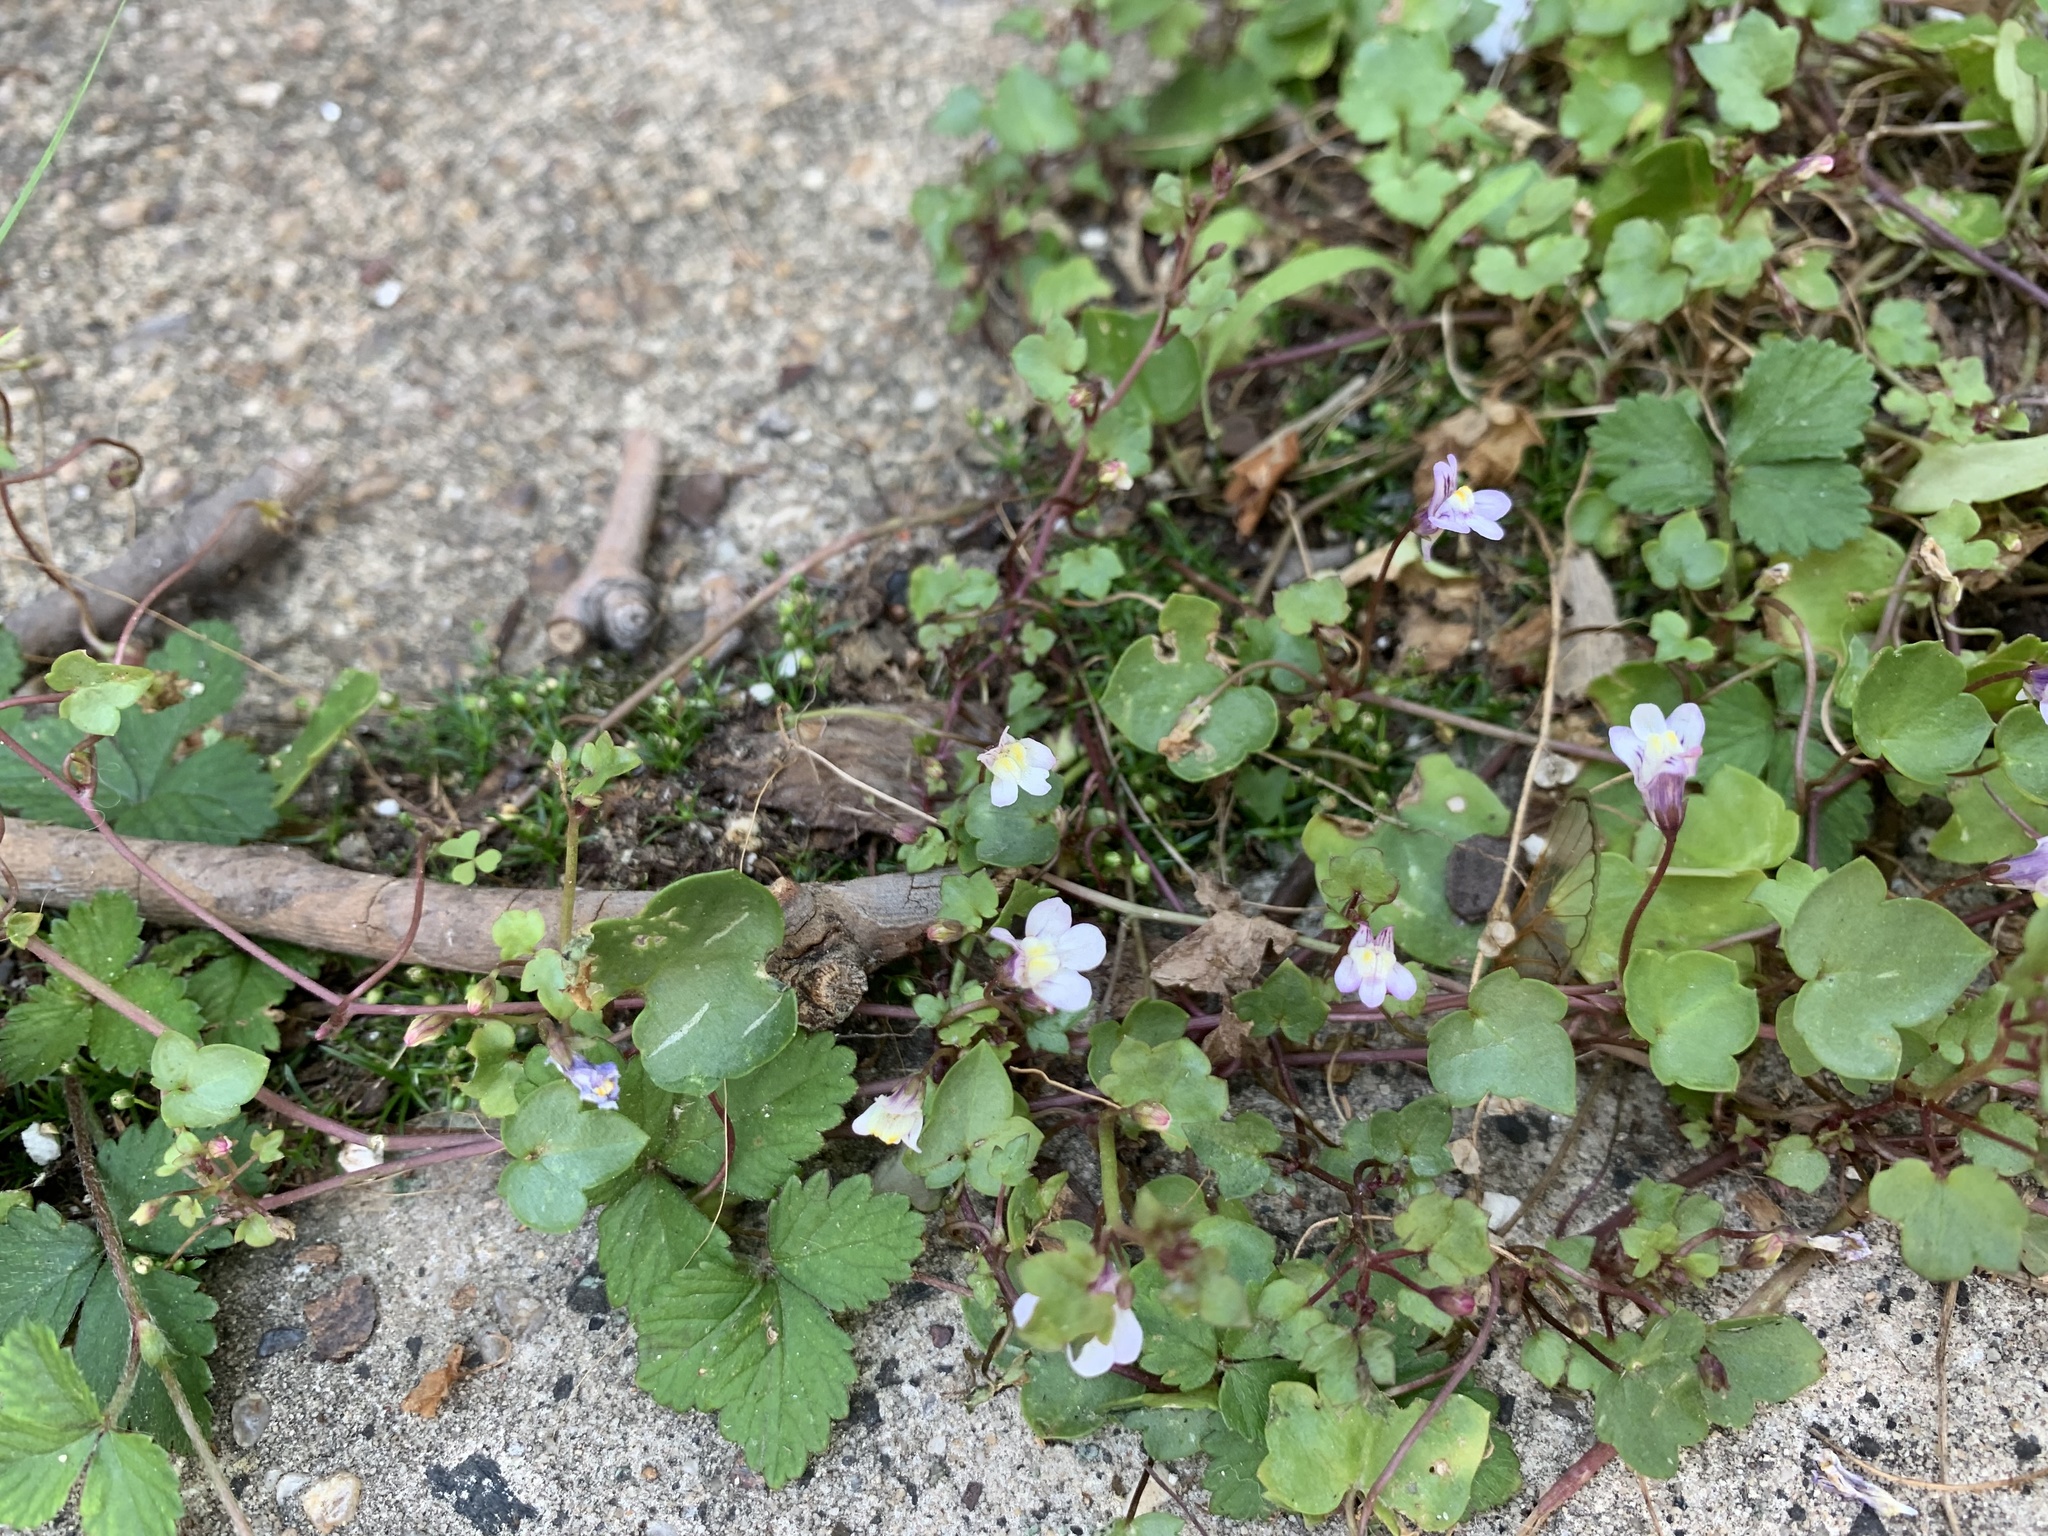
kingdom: Plantae
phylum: Tracheophyta
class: Magnoliopsida
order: Lamiales
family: Plantaginaceae
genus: Cymbalaria
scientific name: Cymbalaria muralis
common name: Ivy-leaved toadflax
